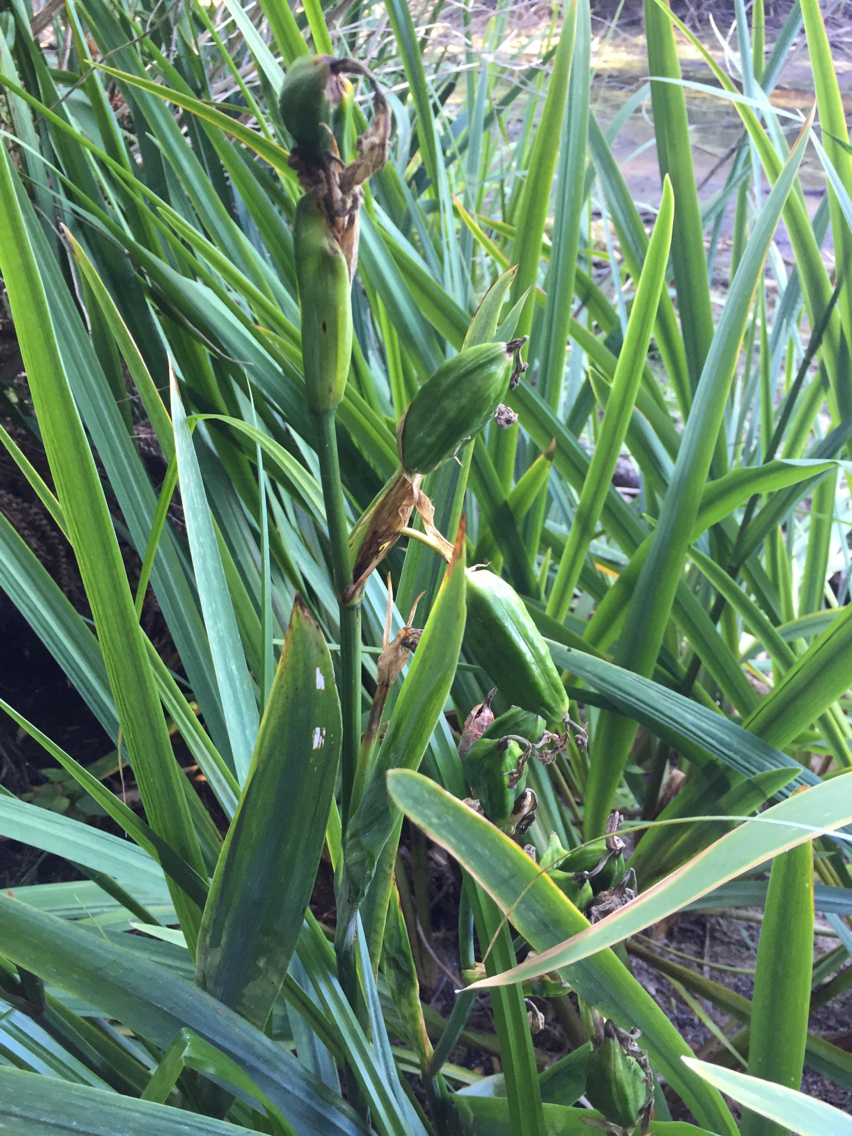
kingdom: Plantae
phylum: Tracheophyta
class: Liliopsida
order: Asparagales
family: Iridaceae
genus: Iris
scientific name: Iris pseudacorus
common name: Yellow flag
